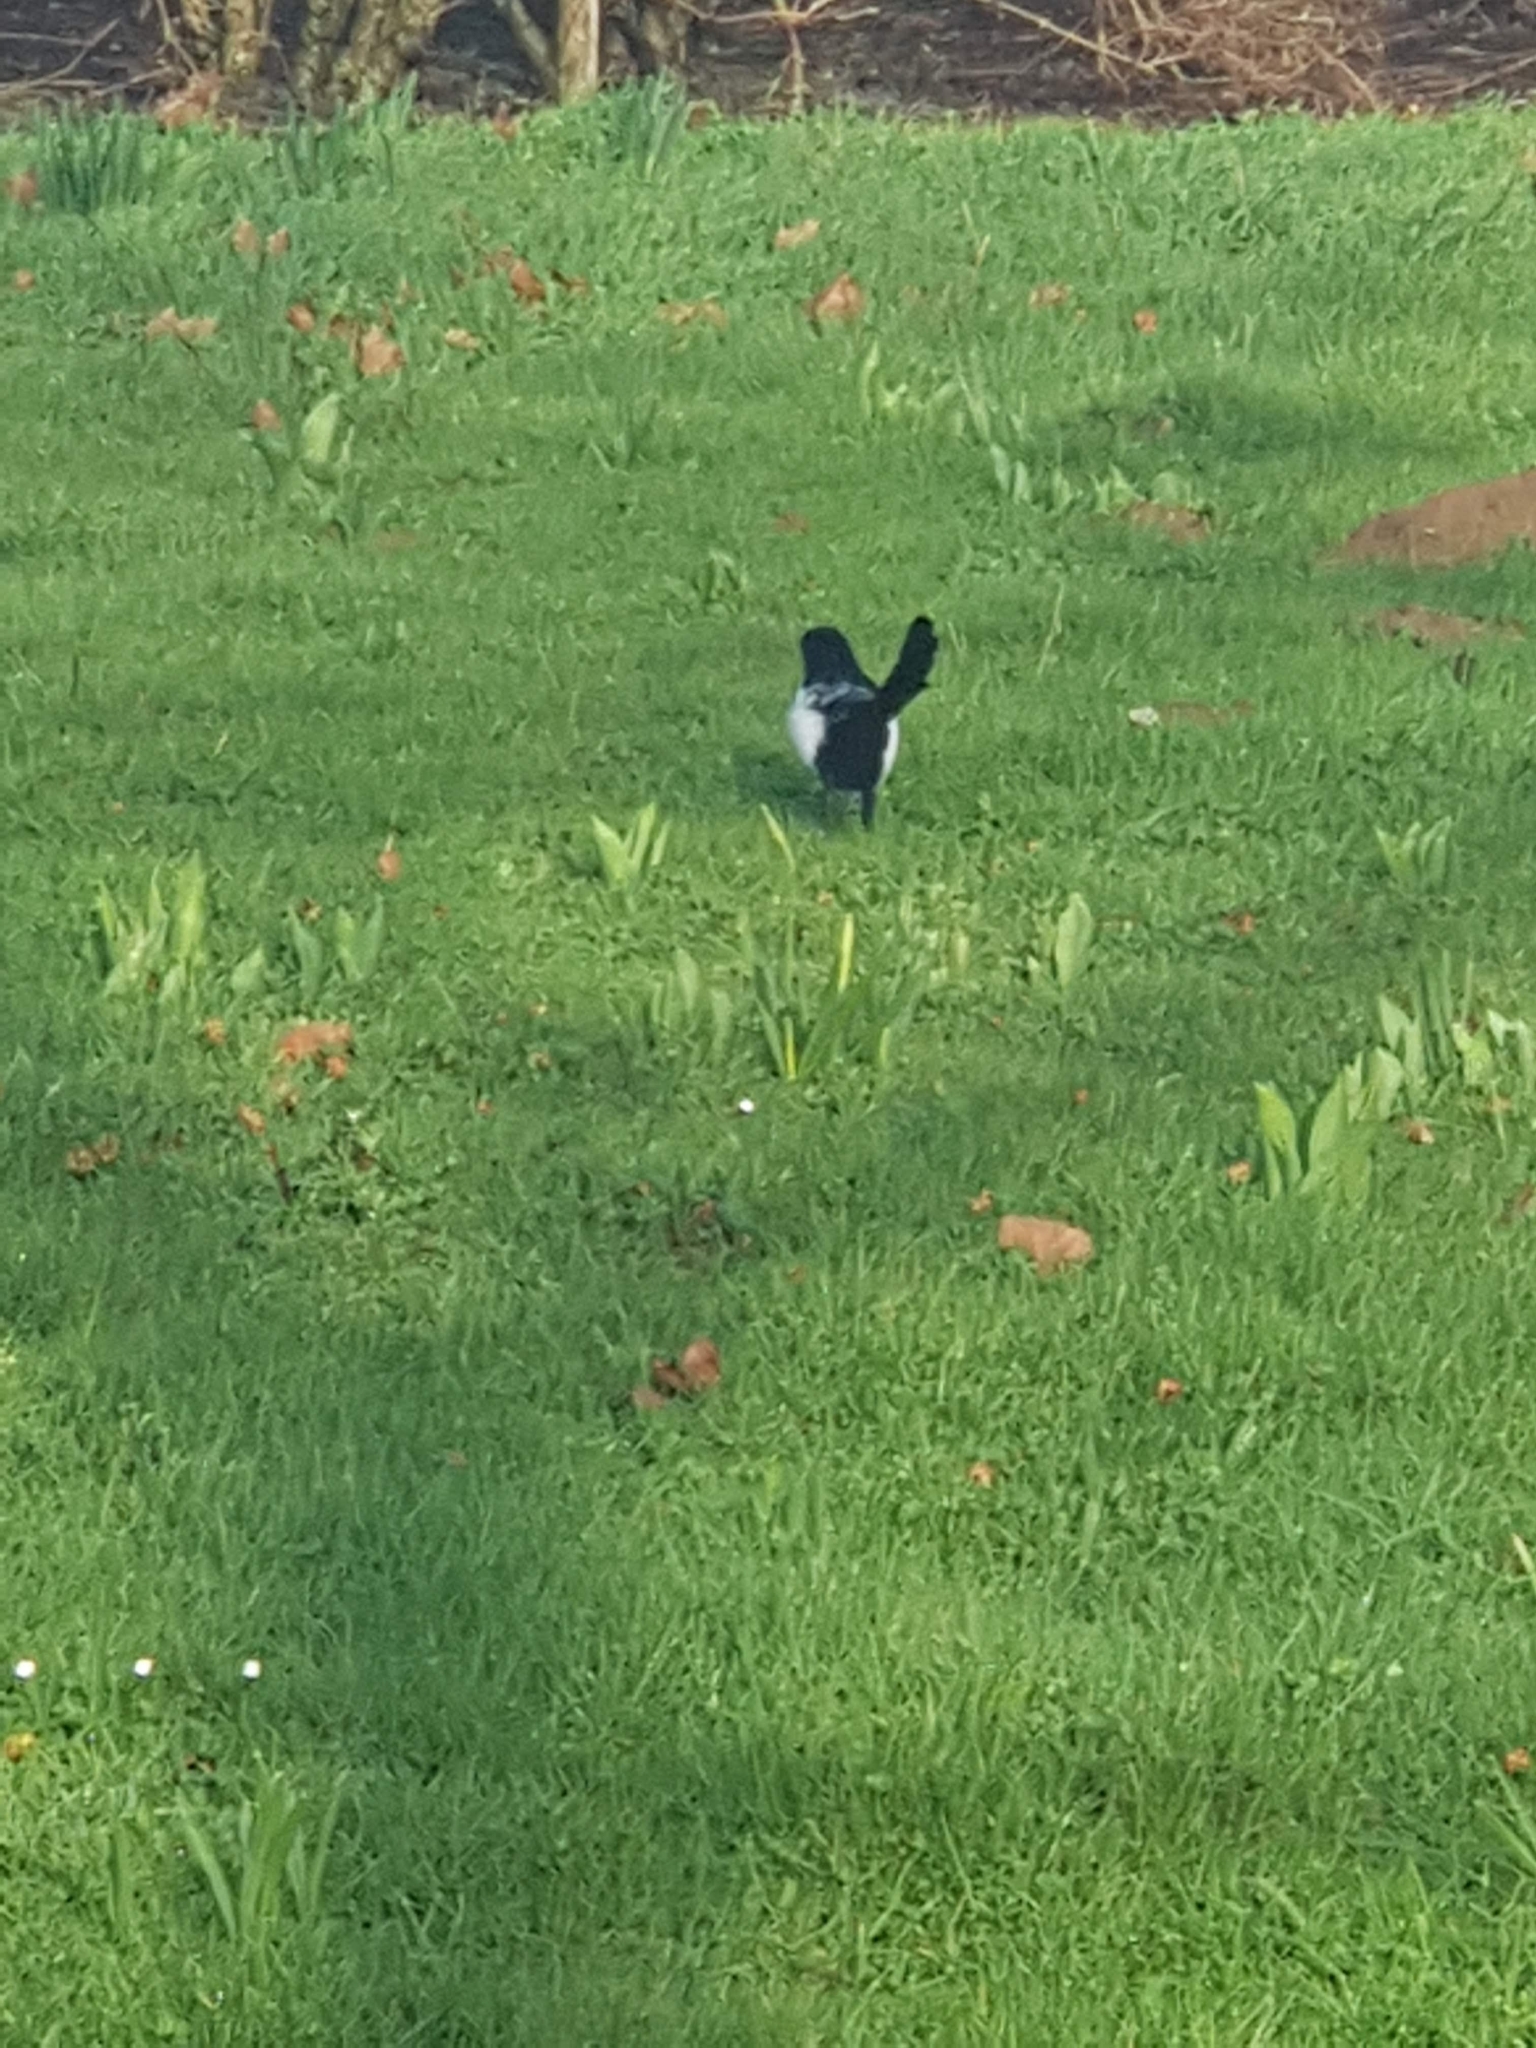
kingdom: Animalia
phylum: Chordata
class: Aves
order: Passeriformes
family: Corvidae
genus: Pica
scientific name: Pica pica
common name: Eurasian magpie
